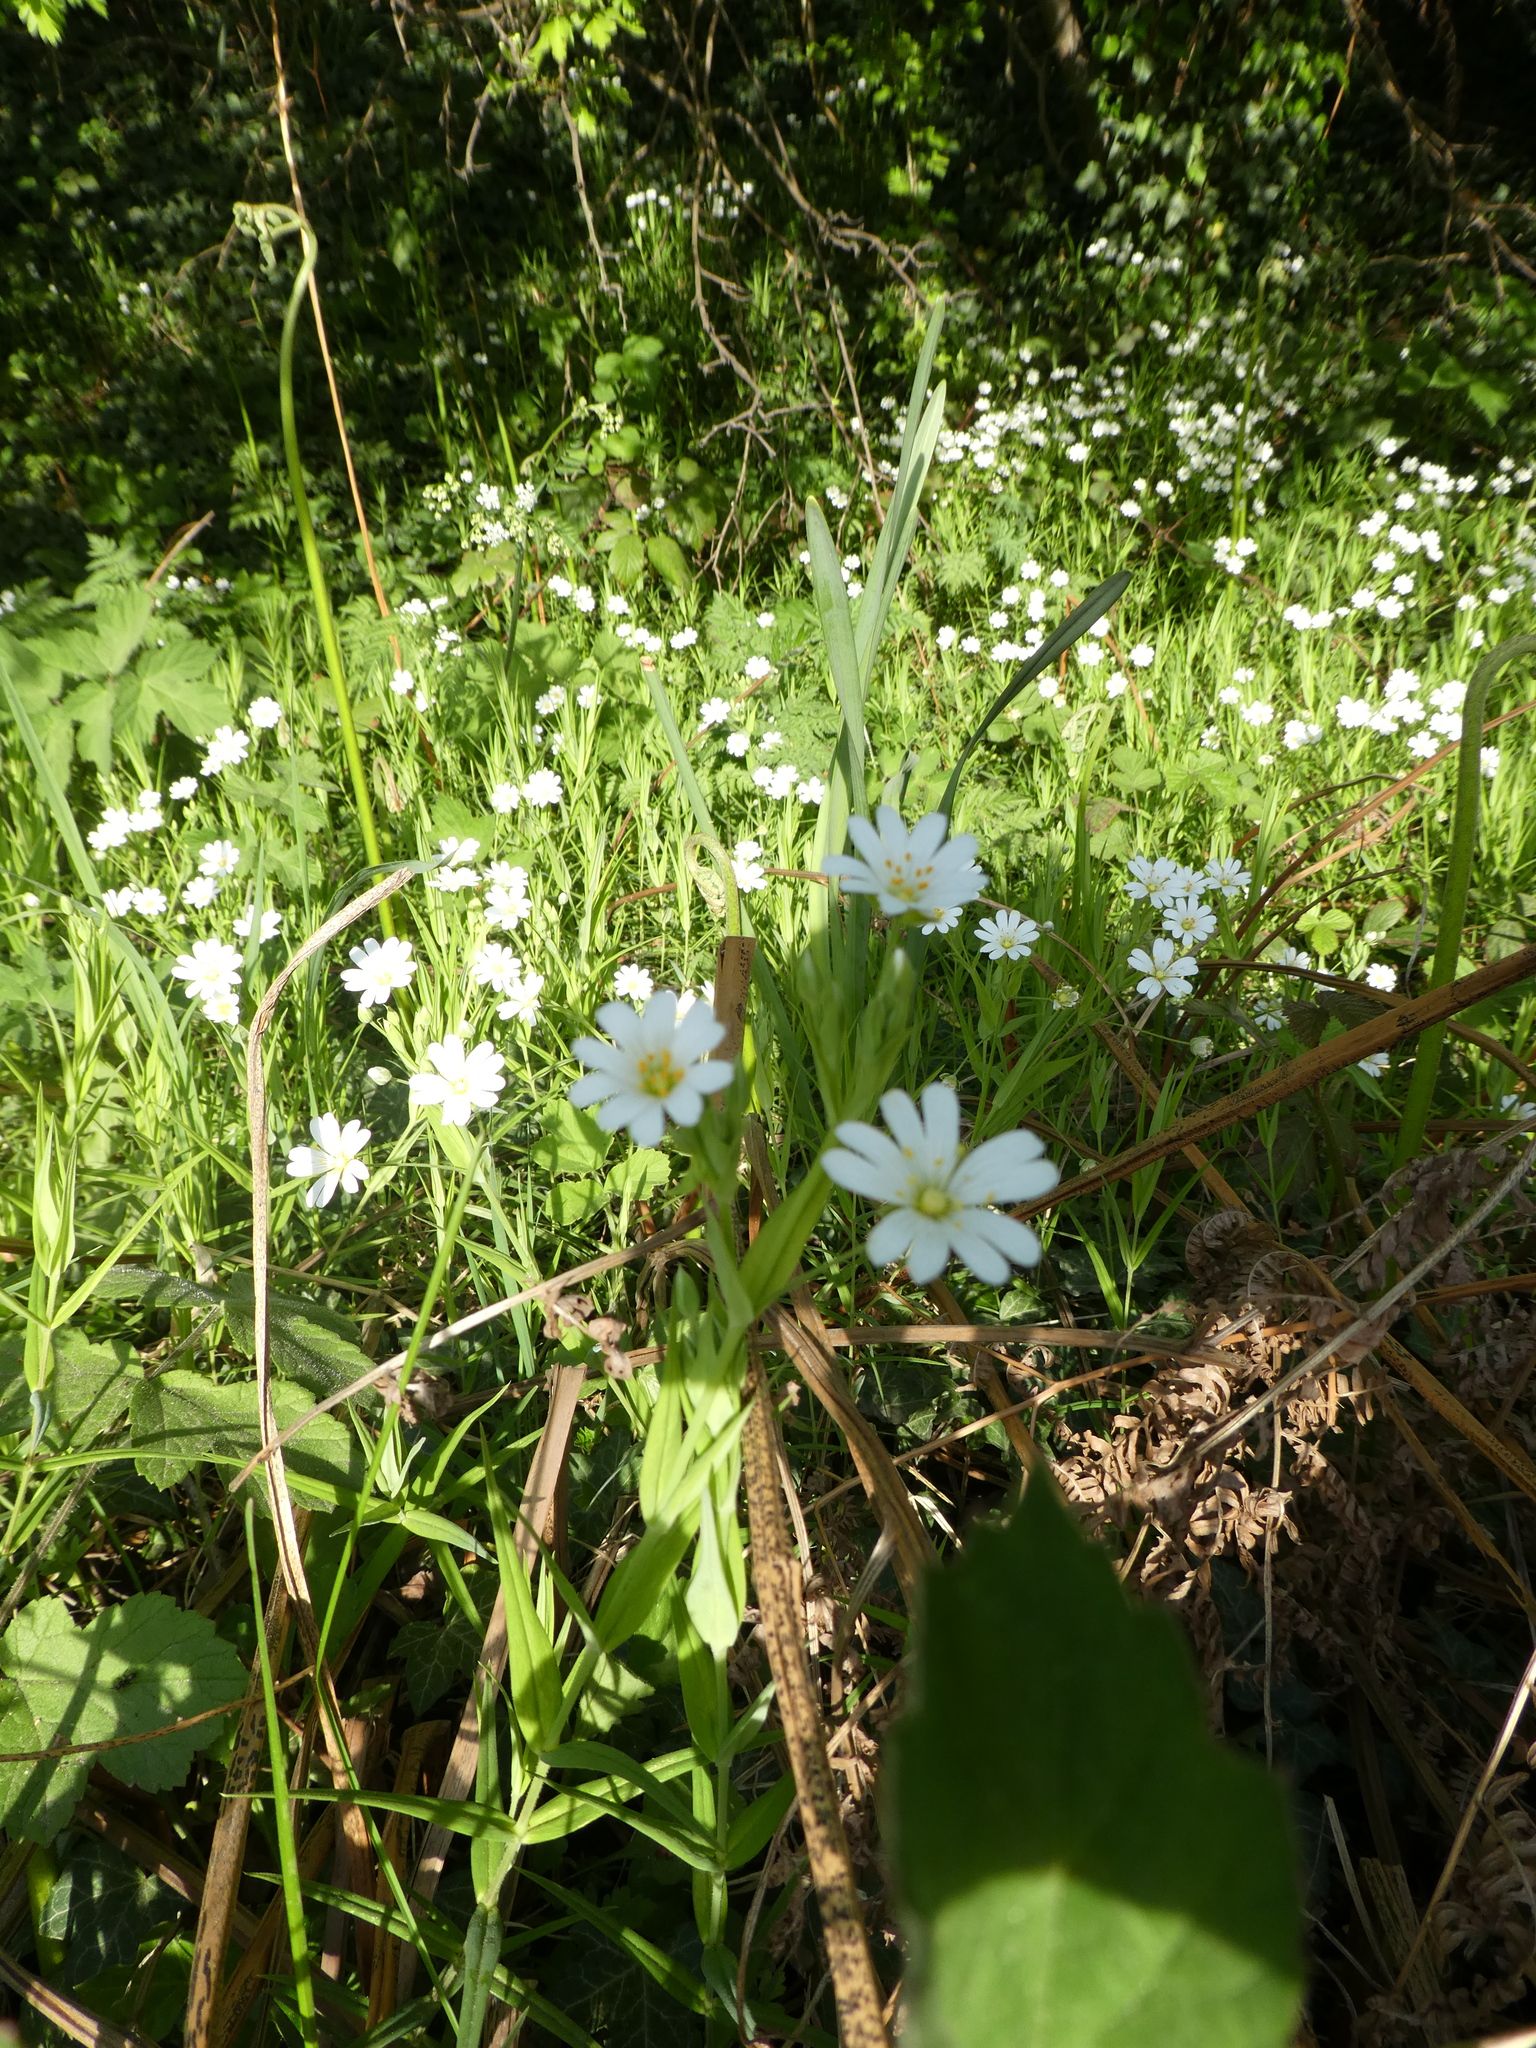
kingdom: Plantae
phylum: Tracheophyta
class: Magnoliopsida
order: Caryophyllales
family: Caryophyllaceae
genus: Rabelera
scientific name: Rabelera holostea
